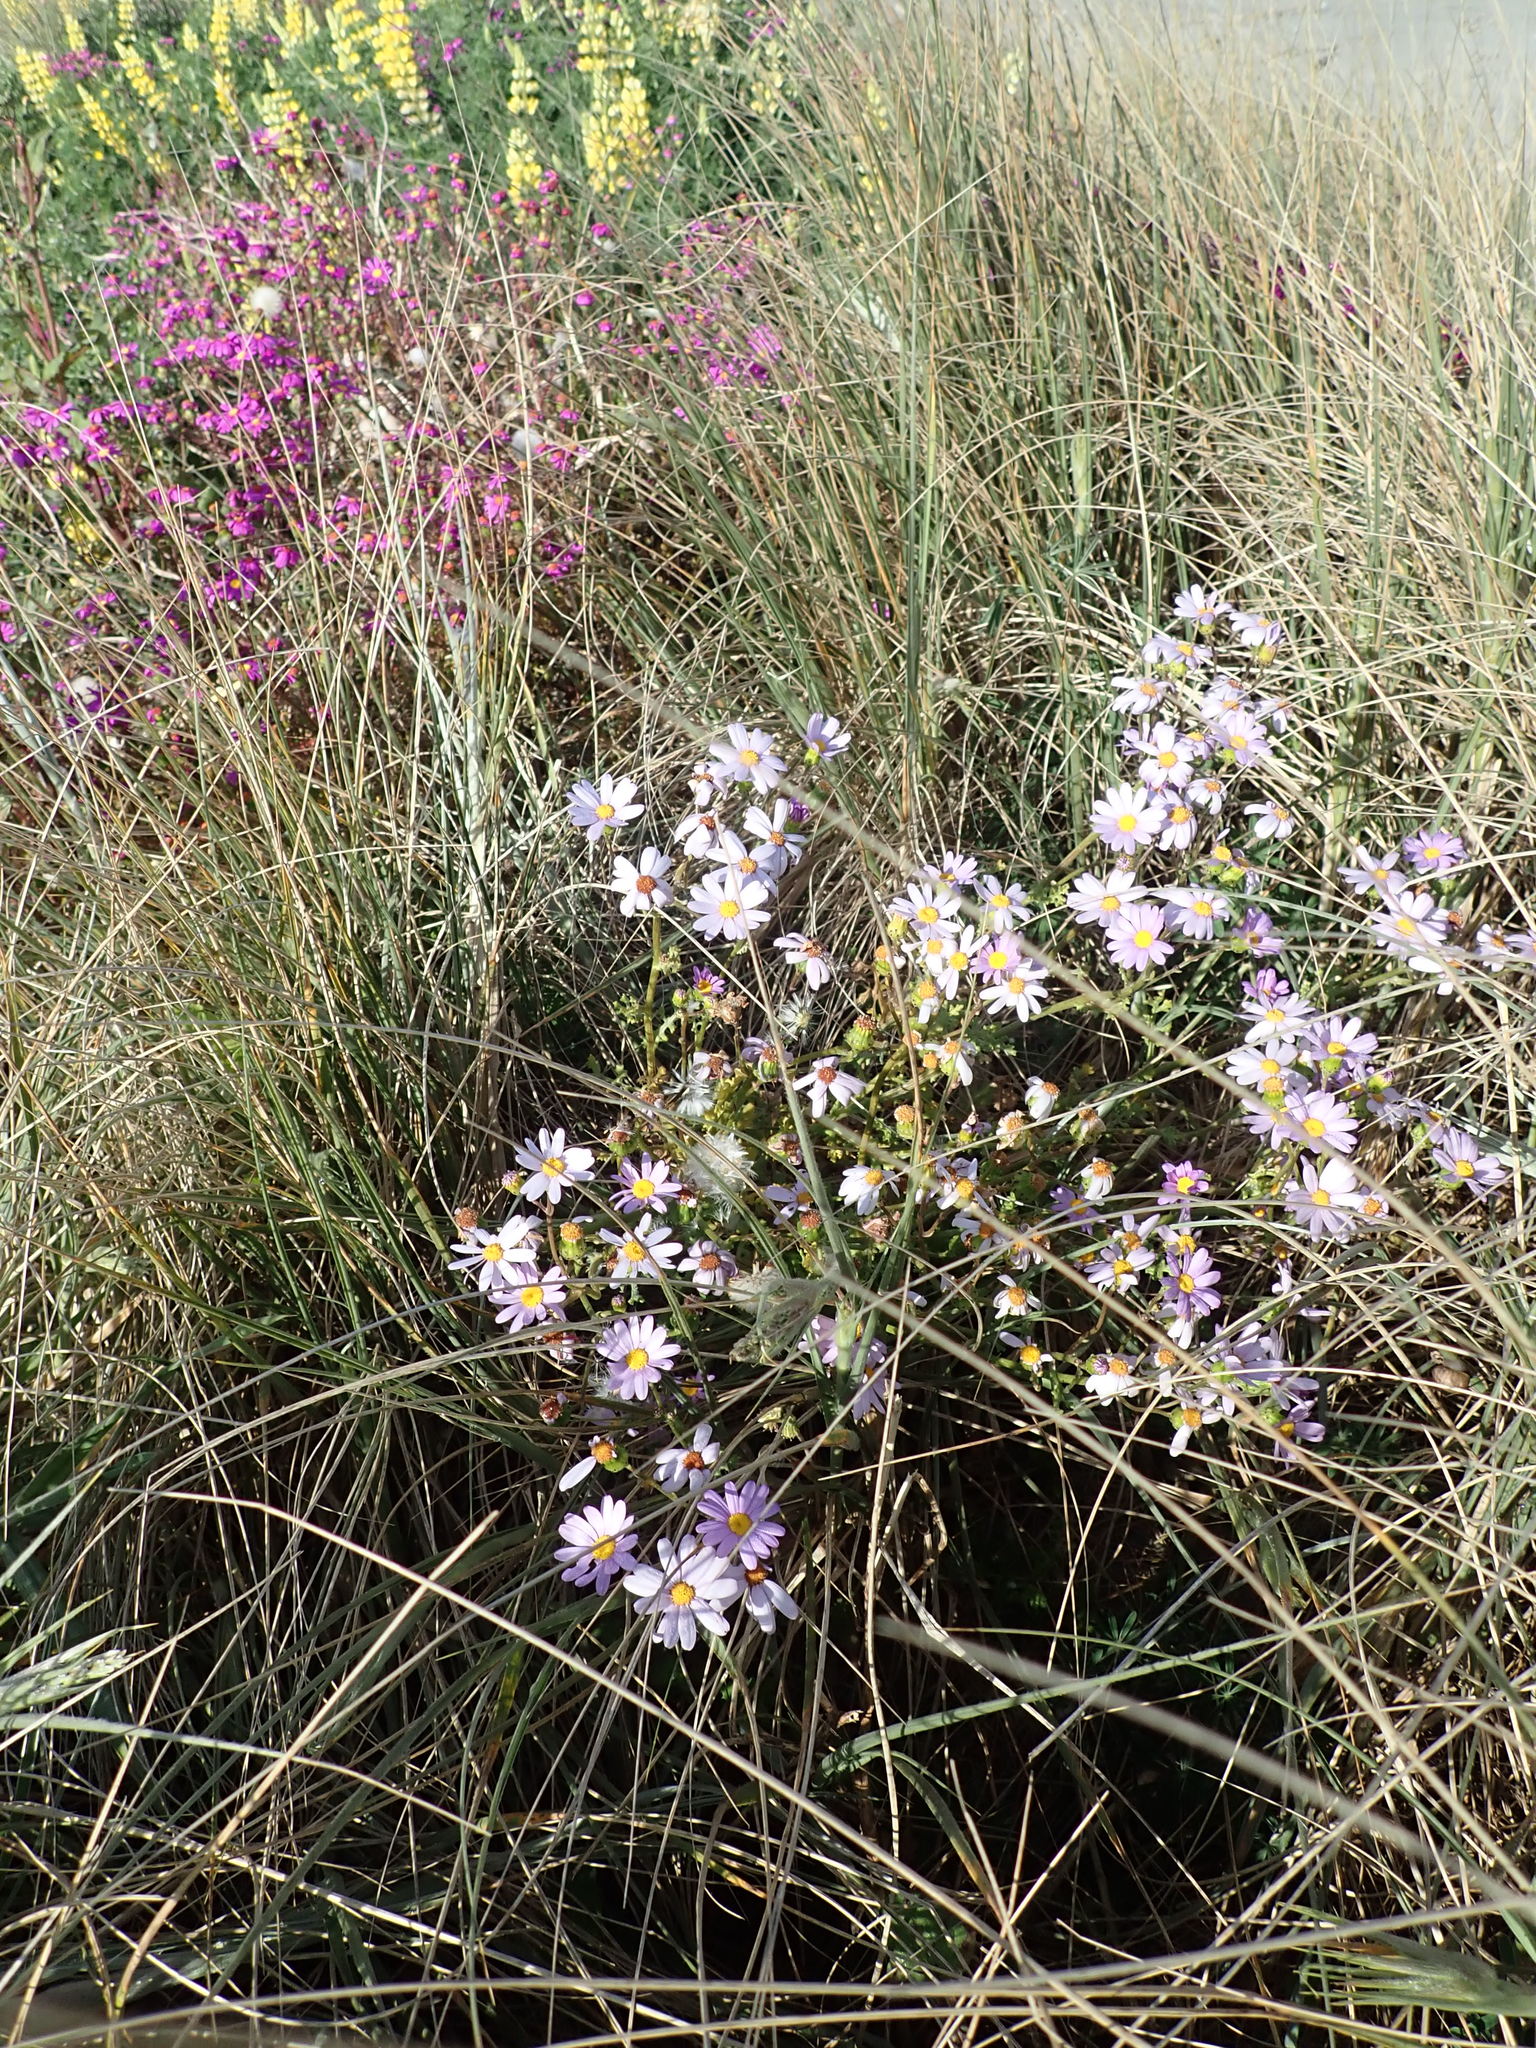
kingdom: Plantae
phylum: Tracheophyta
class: Magnoliopsida
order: Asterales
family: Asteraceae
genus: Senecio
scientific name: Senecio elegans
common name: Purple groundsel
